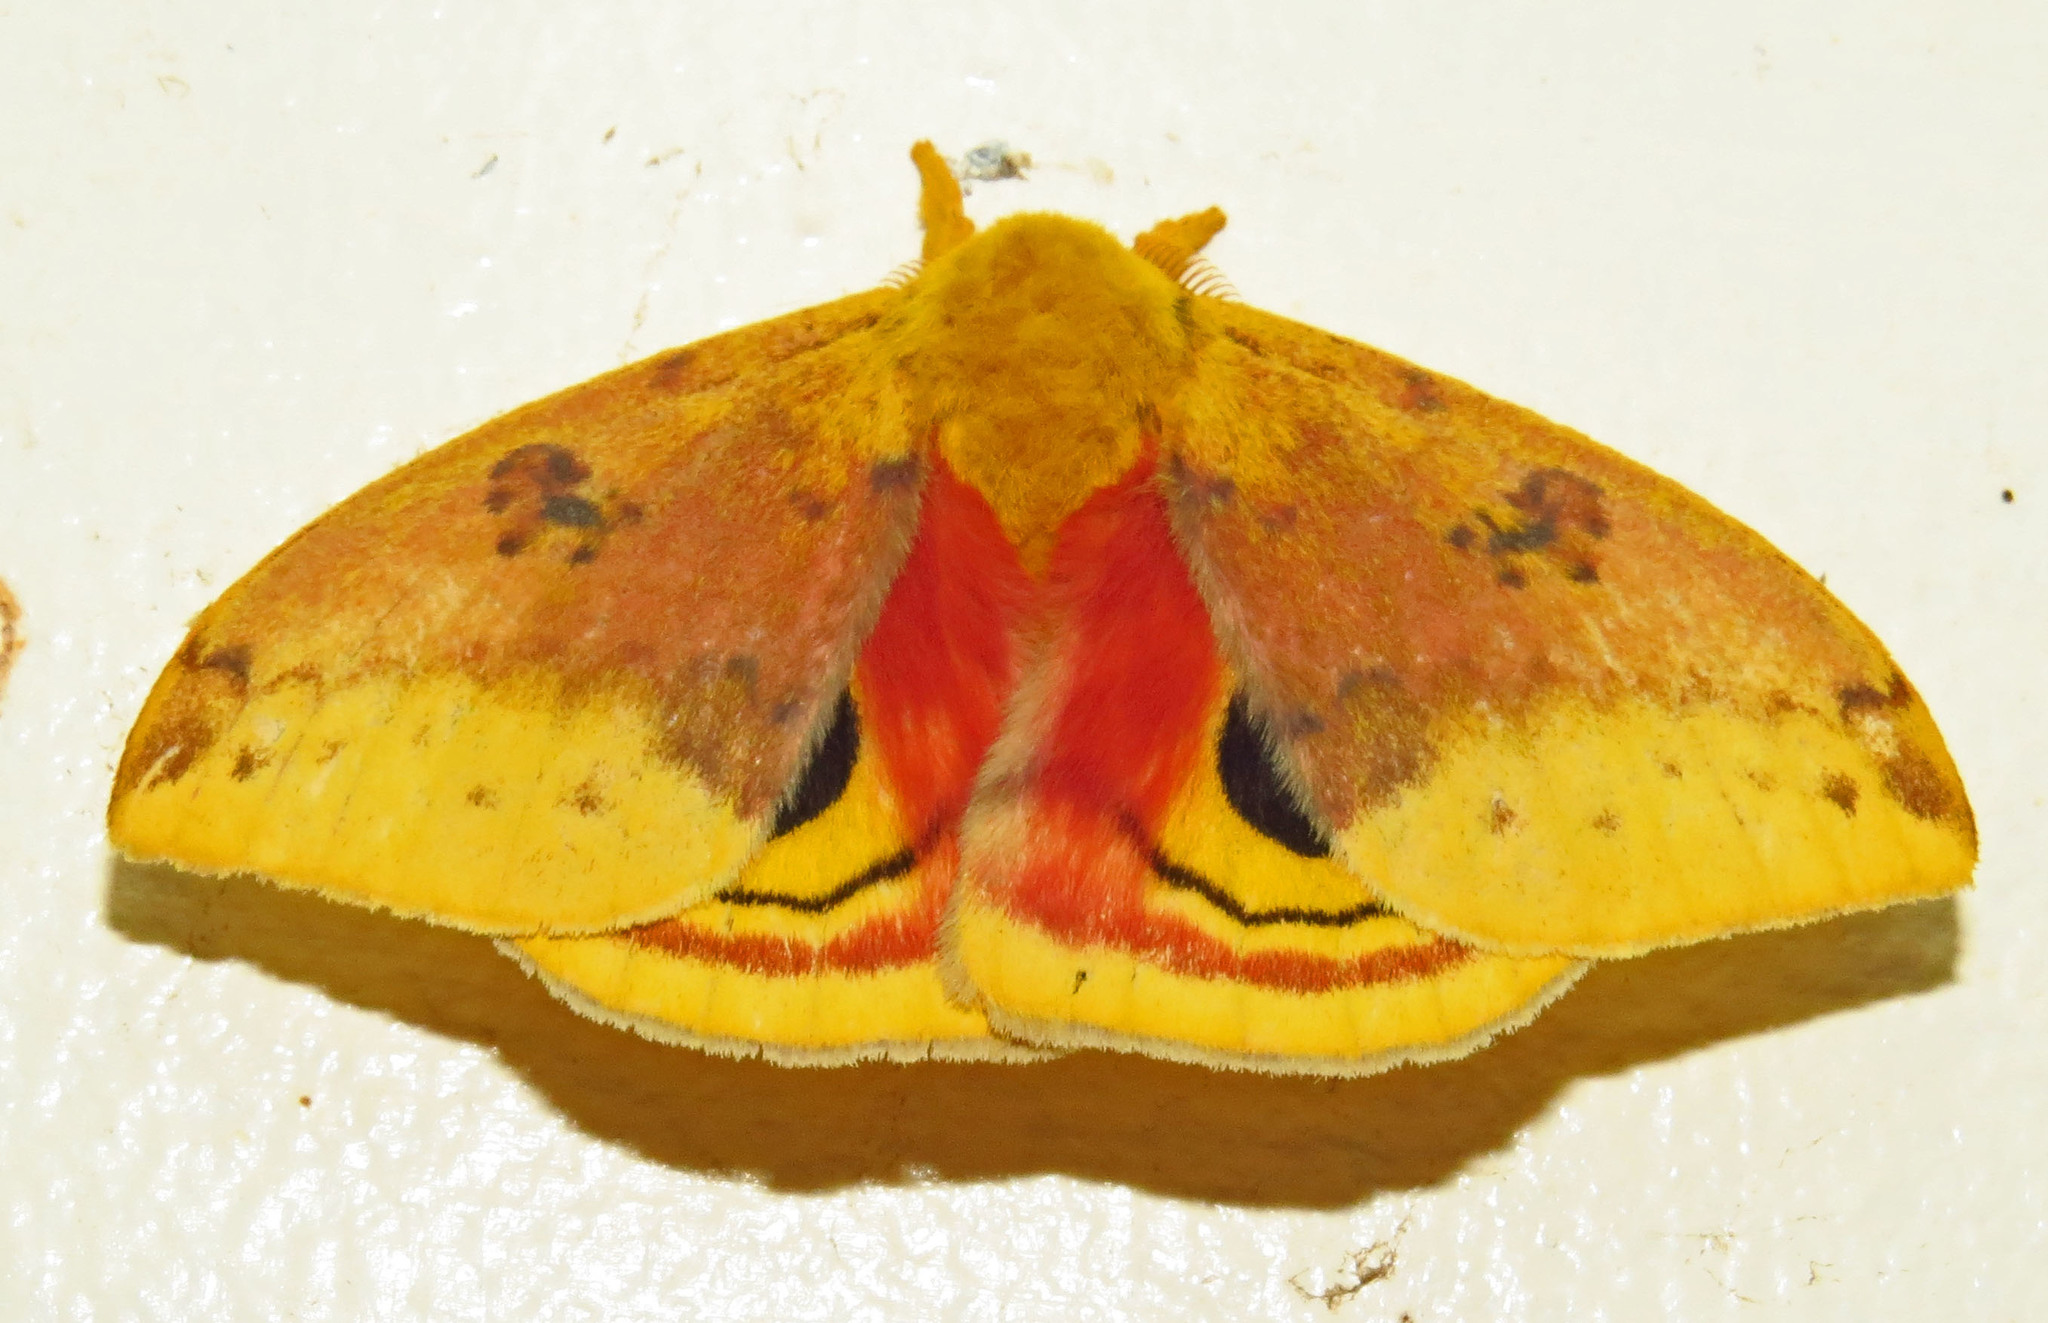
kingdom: Animalia
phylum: Arthropoda
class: Insecta
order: Lepidoptera
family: Saturniidae
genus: Automeris
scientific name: Automeris io
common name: Io moth
